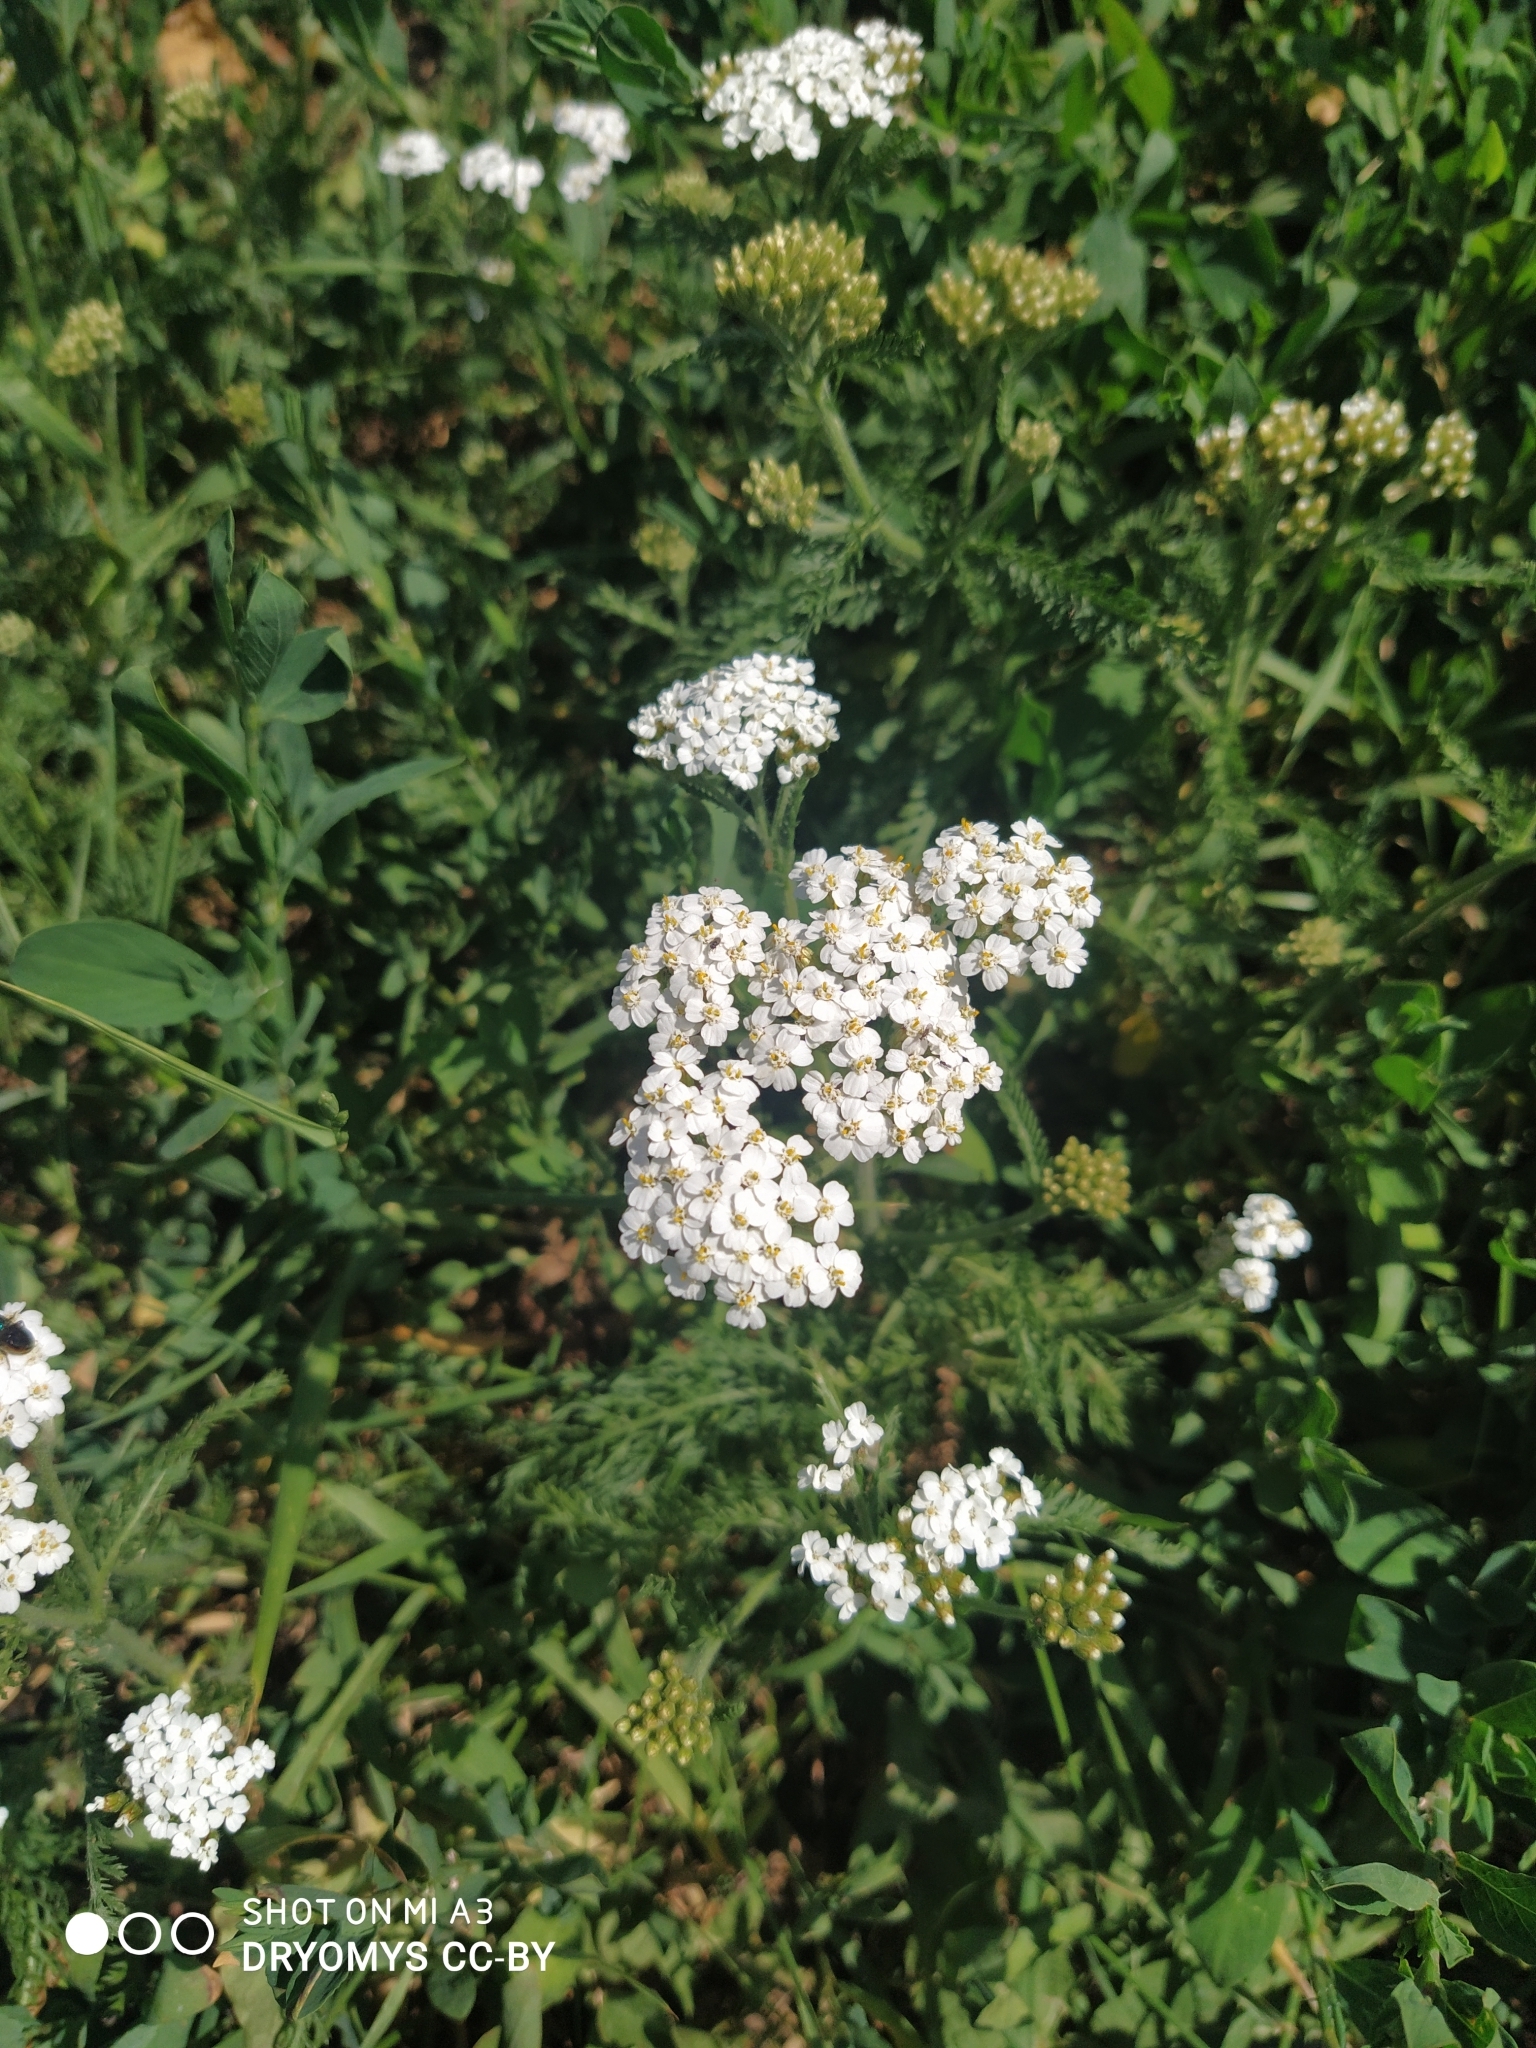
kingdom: Plantae
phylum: Tracheophyta
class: Magnoliopsida
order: Asterales
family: Asteraceae
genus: Achillea
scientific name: Achillea millefolium
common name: Yarrow
